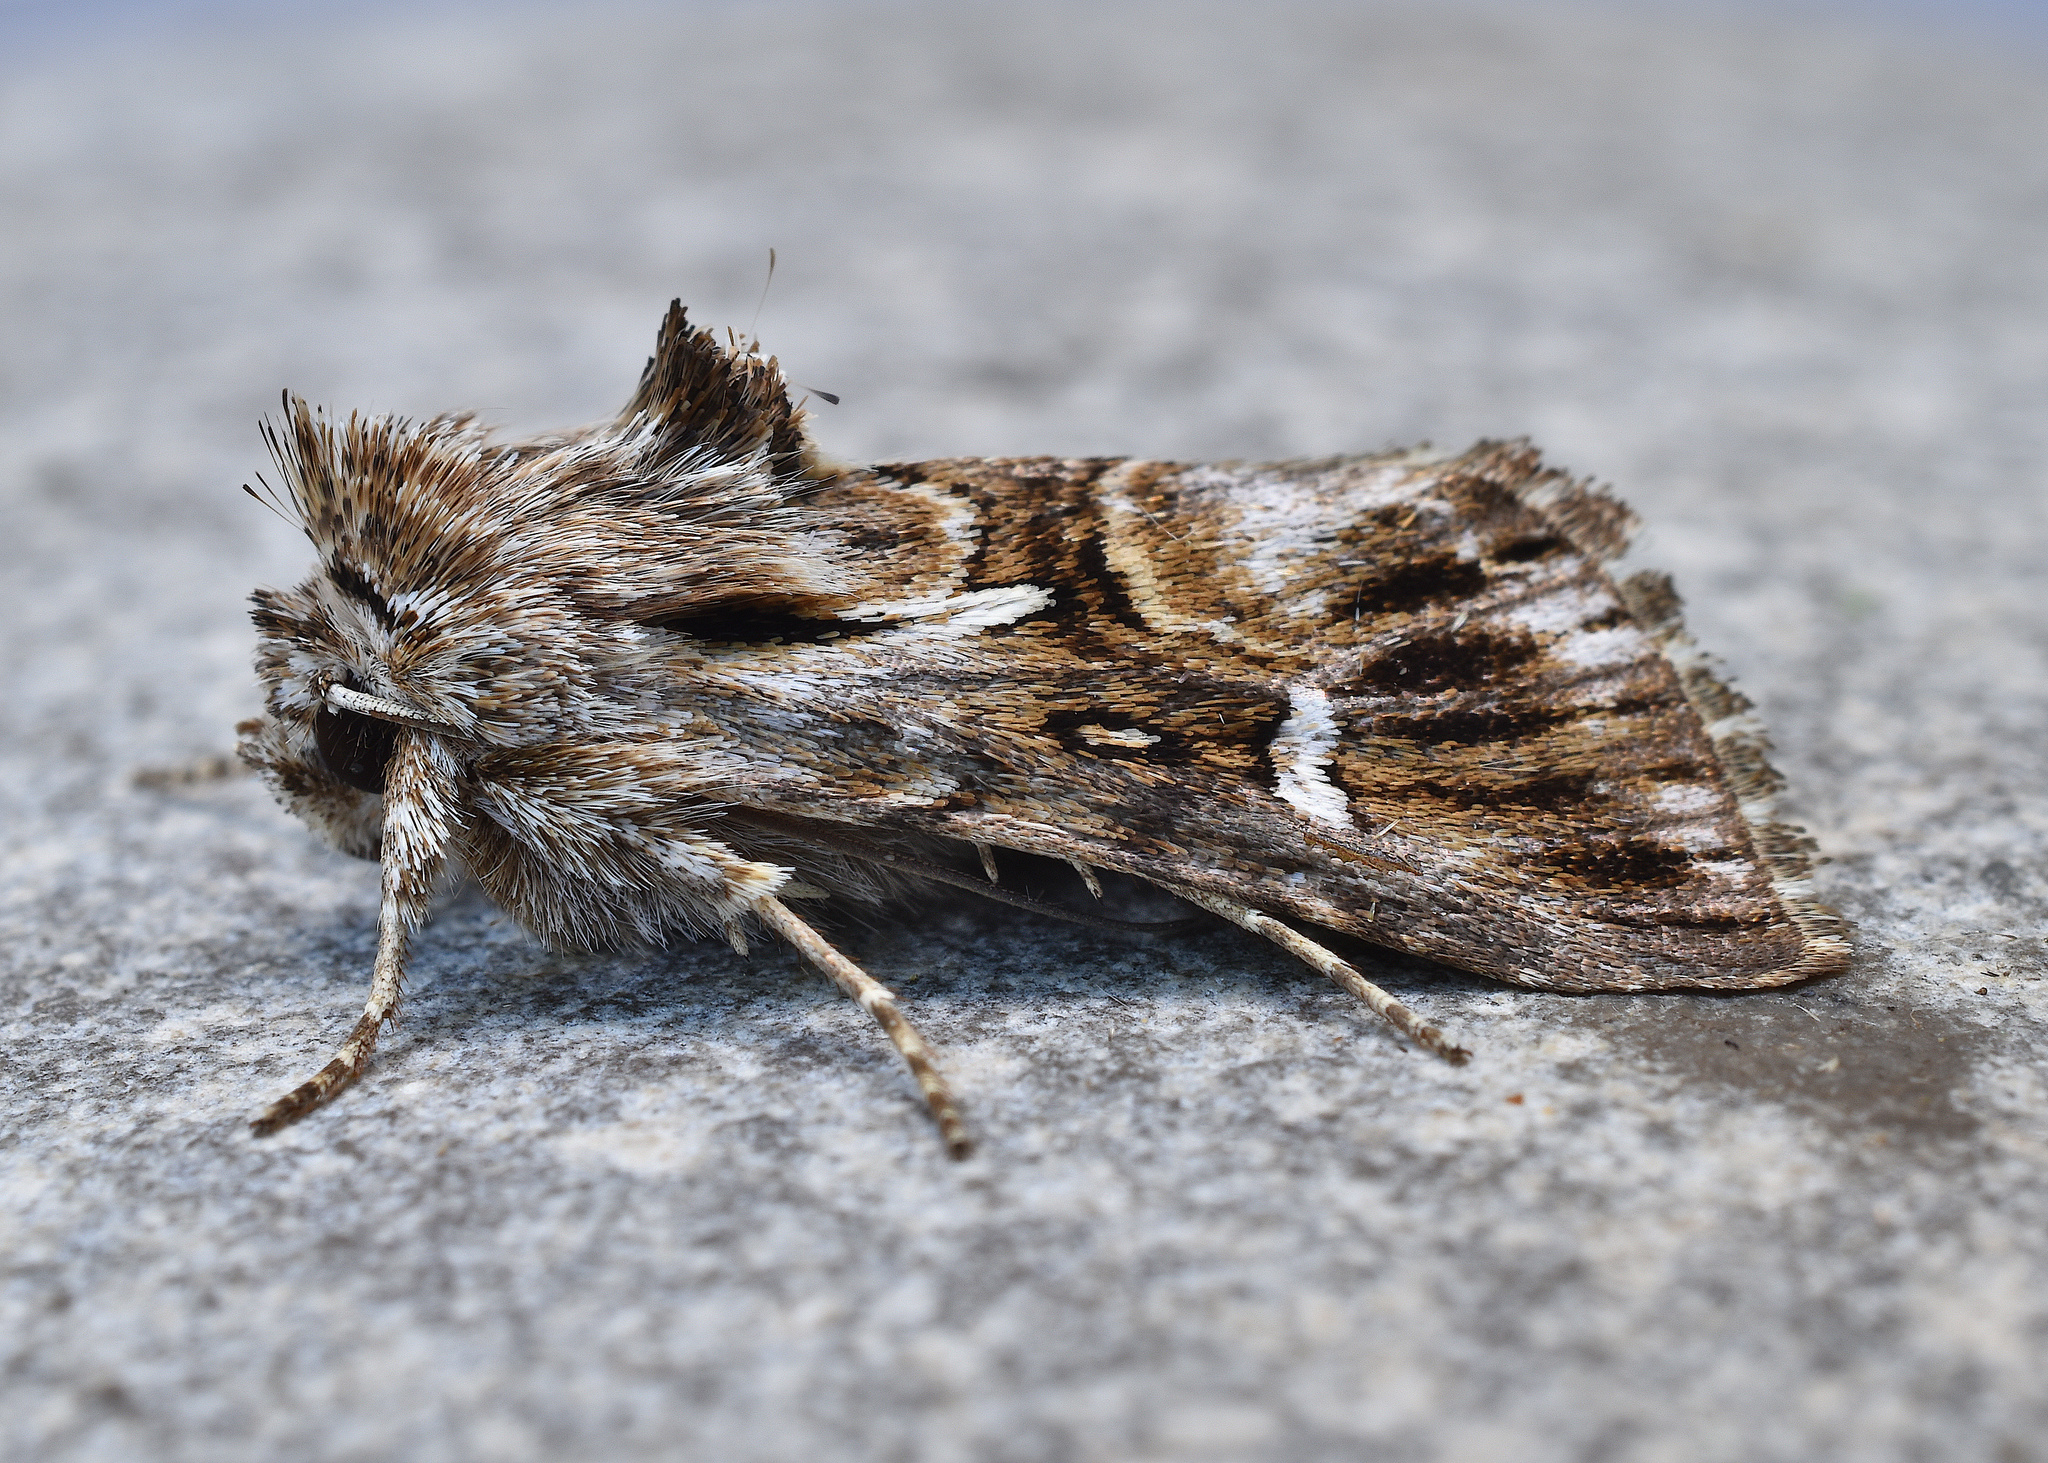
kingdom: Animalia
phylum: Arthropoda
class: Insecta
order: Lepidoptera
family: Noctuidae
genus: Calophasia
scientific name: Calophasia lunula
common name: Toadflax brocade
